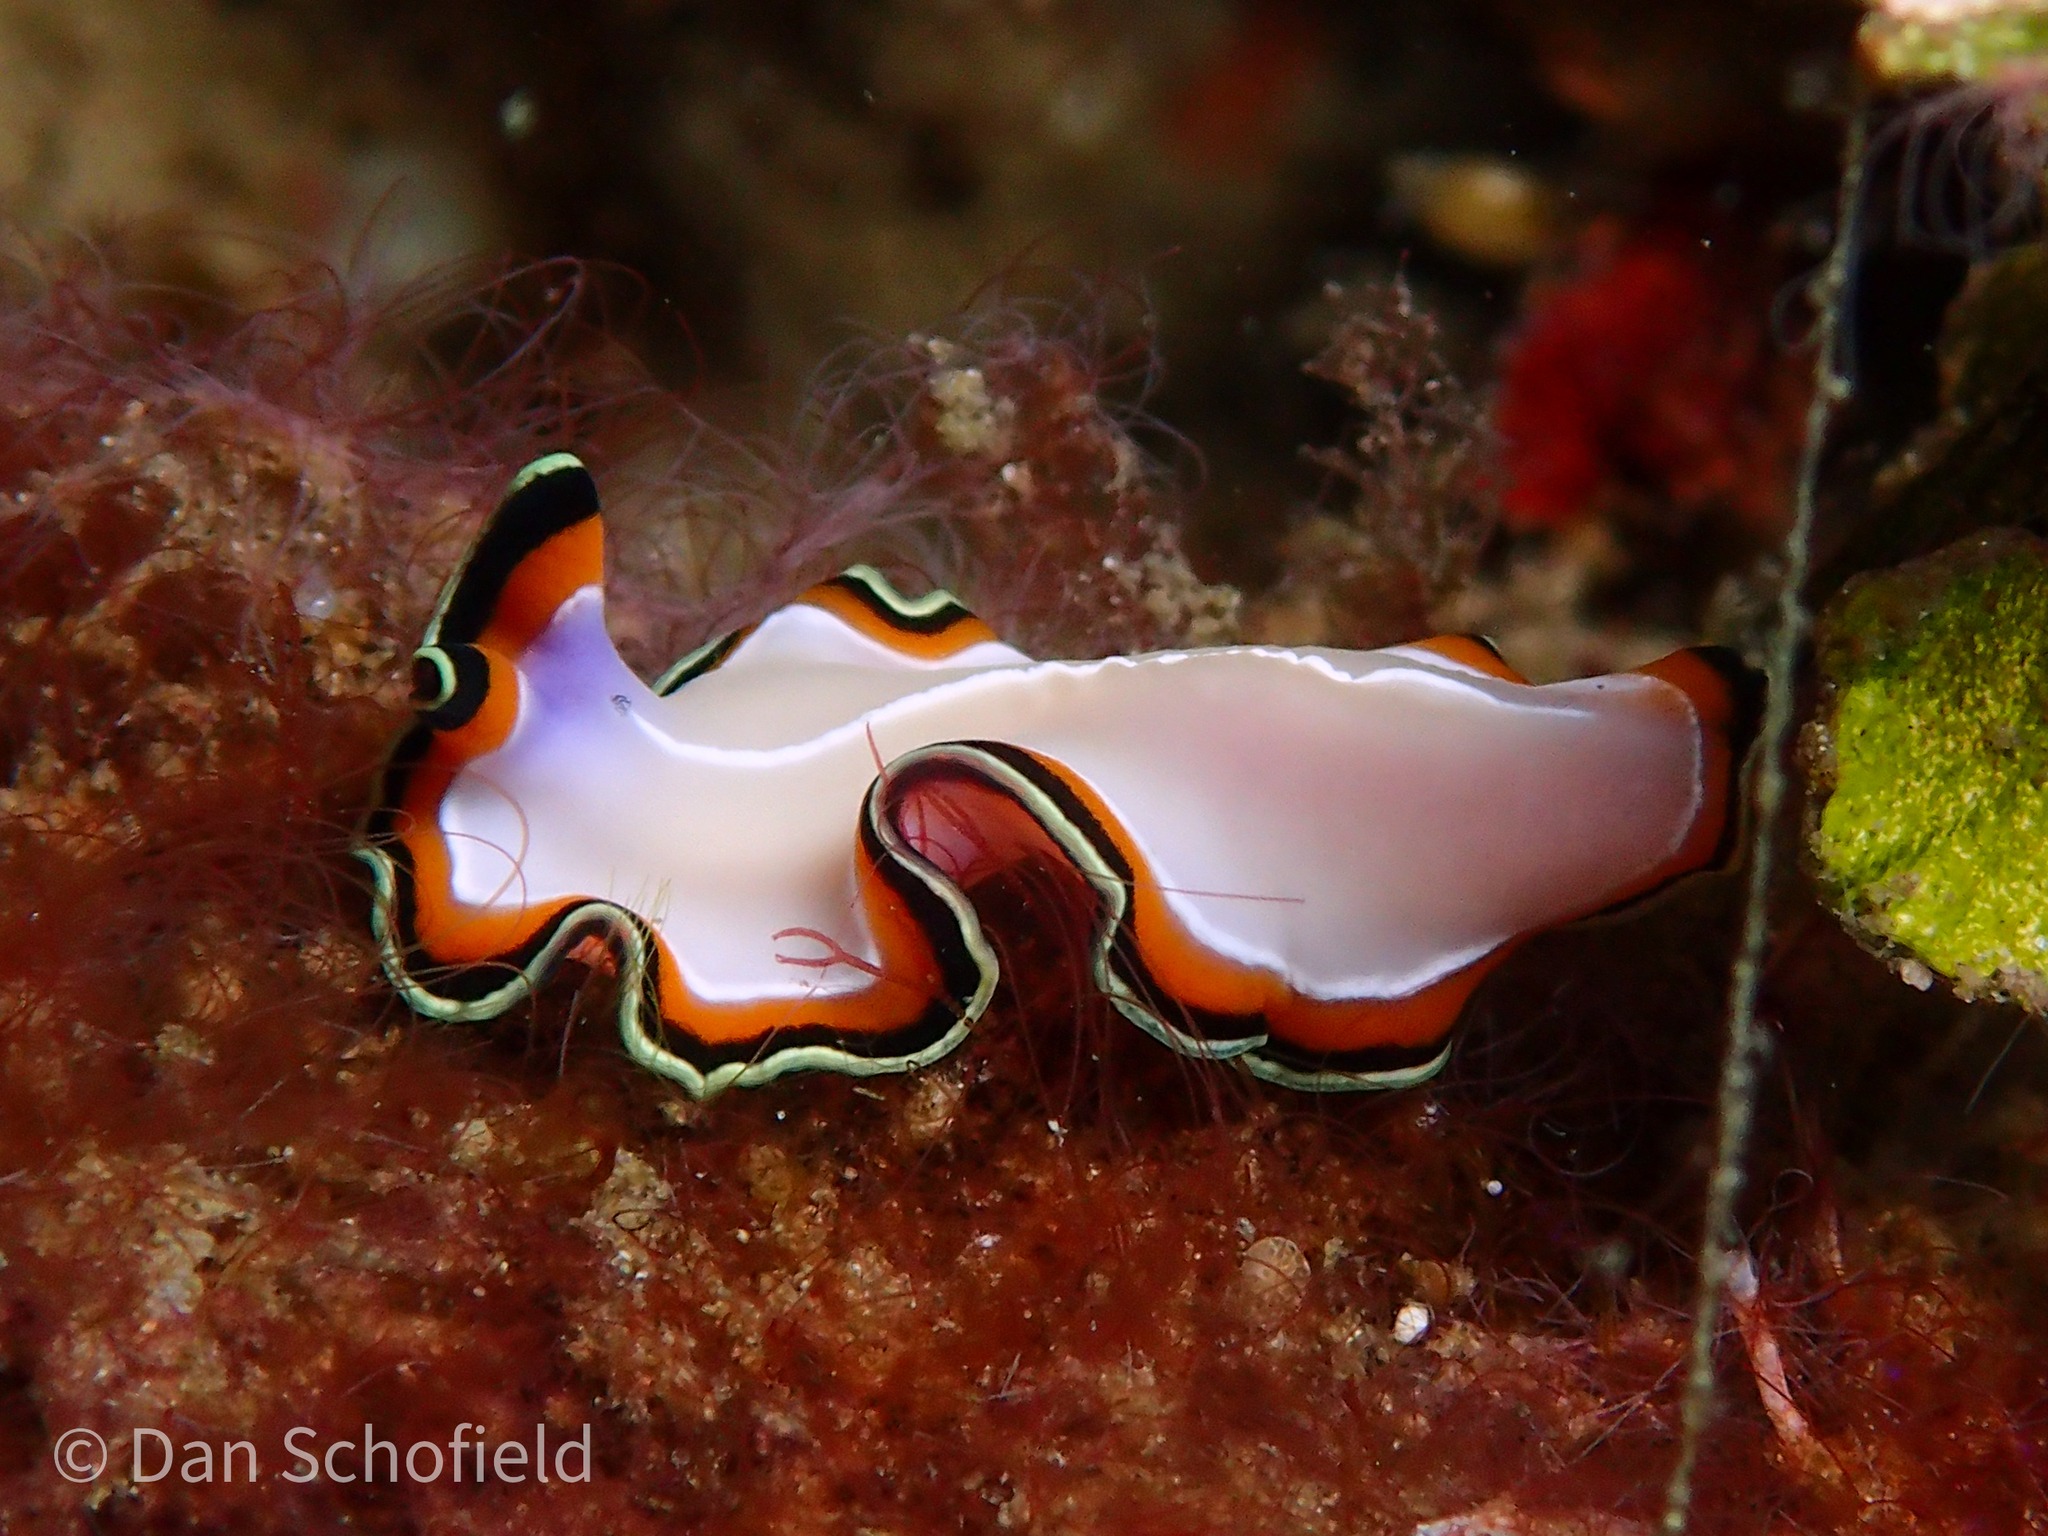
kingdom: Animalia
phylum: Platyhelminthes
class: Turbellaria
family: Pseudocerotidae
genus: Pseudoceros
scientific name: Pseudoceros bimarginatus
